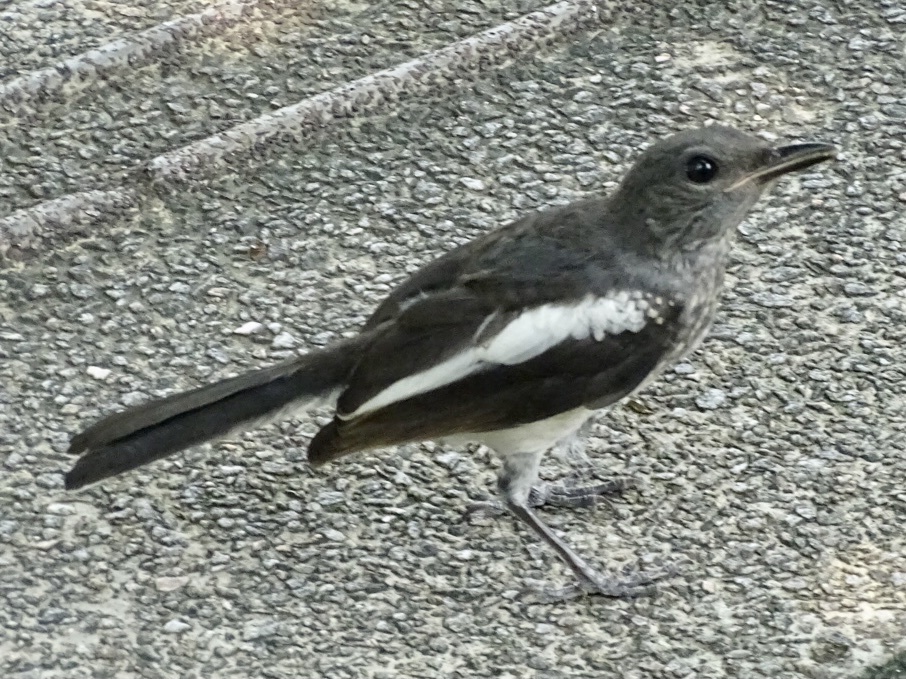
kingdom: Animalia
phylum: Chordata
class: Aves
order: Passeriformes
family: Muscicapidae
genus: Copsychus
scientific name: Copsychus saularis
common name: Oriental magpie-robin
